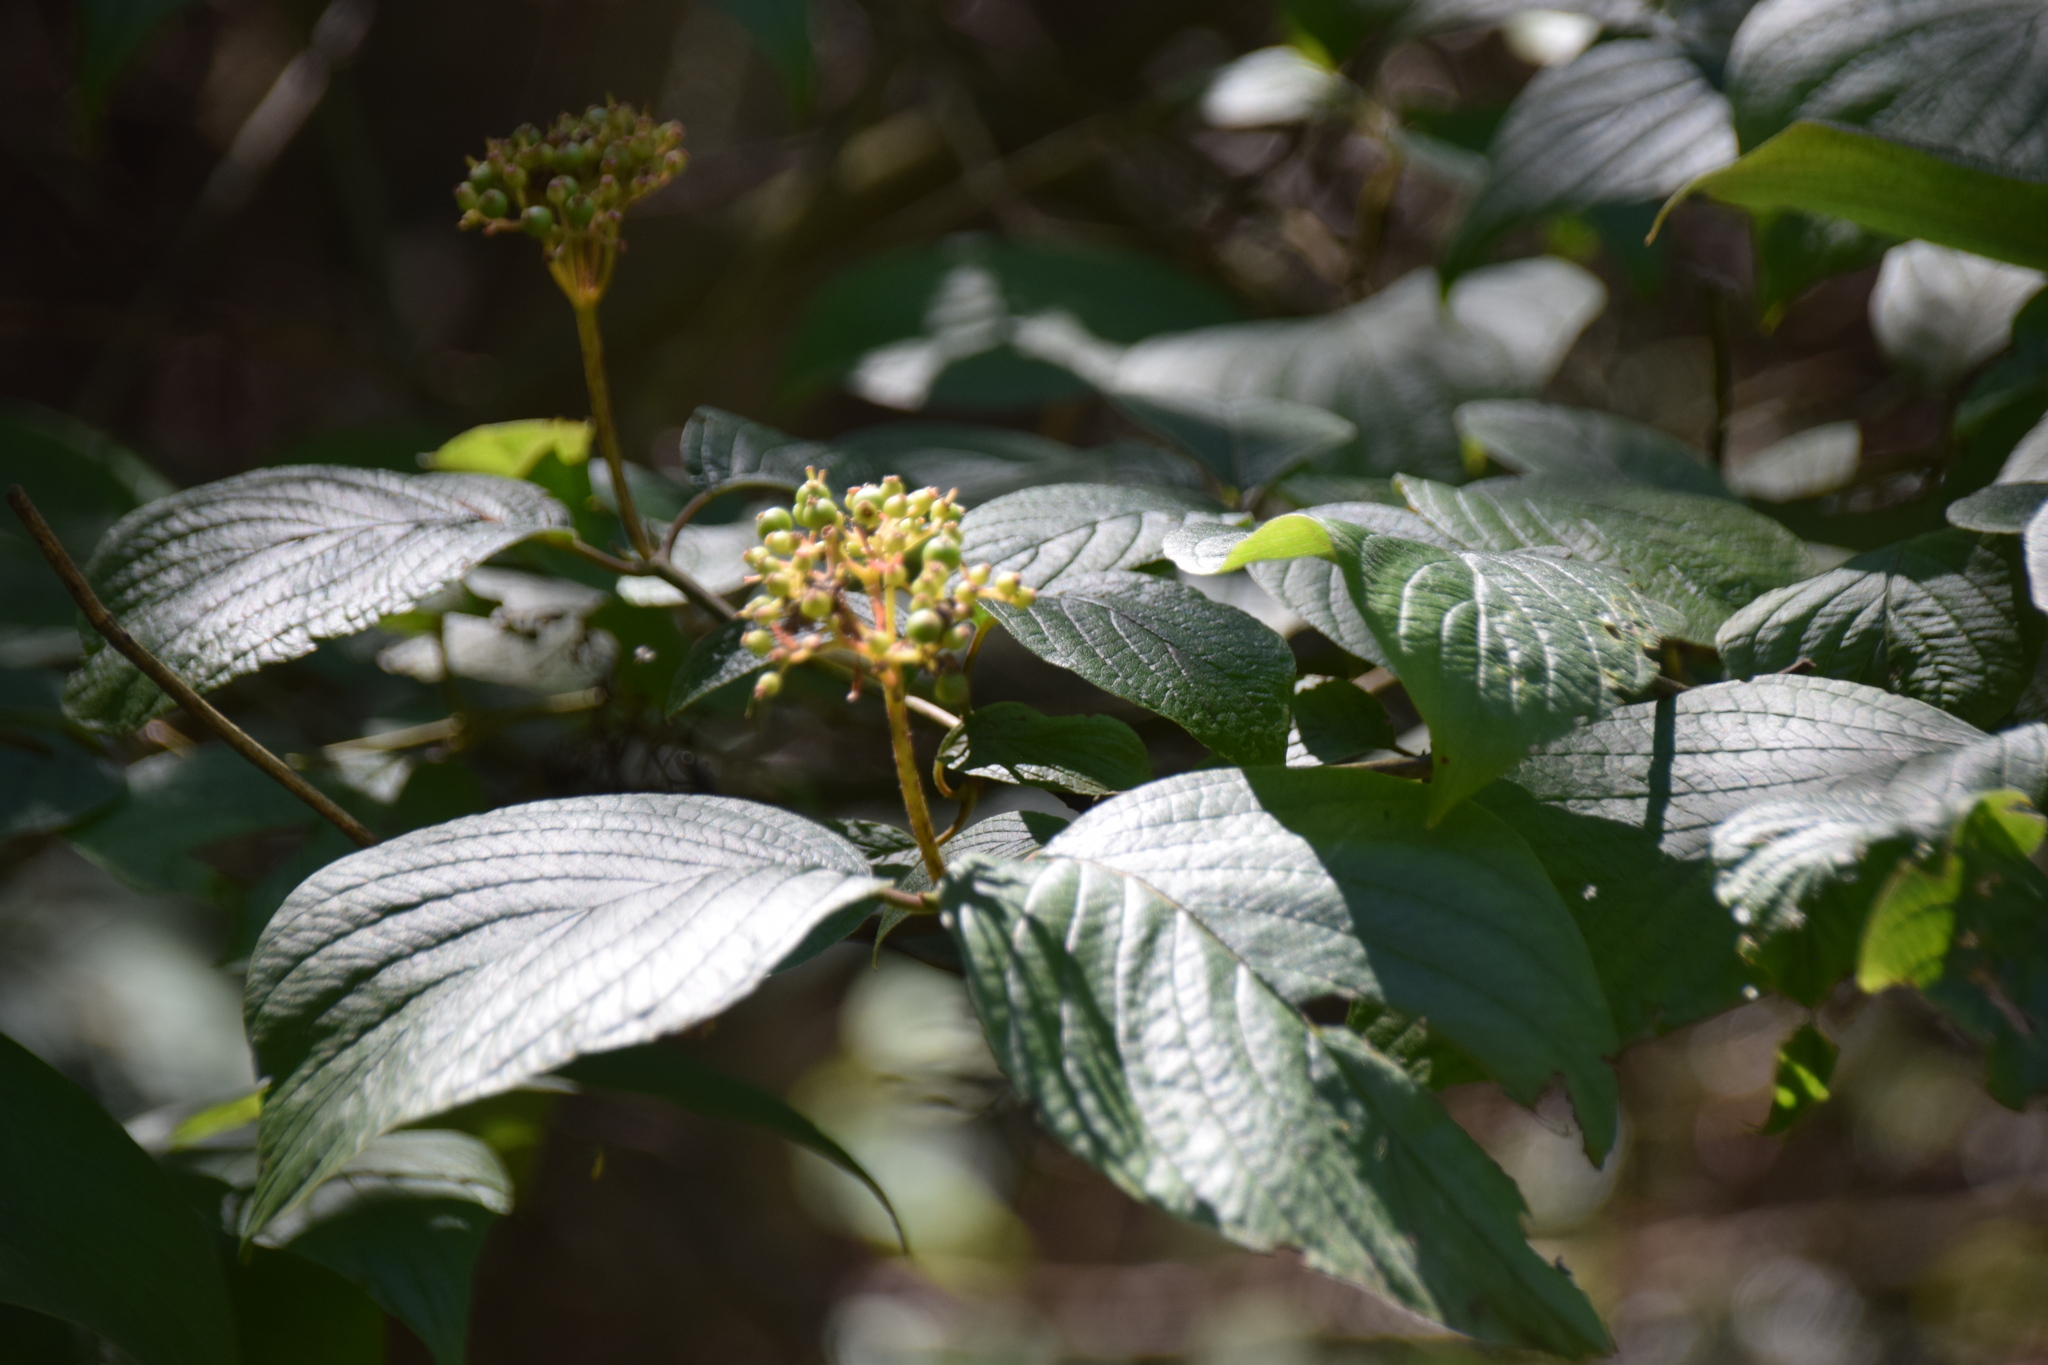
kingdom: Plantae
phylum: Tracheophyta
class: Magnoliopsida
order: Cornales
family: Cornaceae
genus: Cornus
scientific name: Cornus rugosa
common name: Round-leaf dogwood
